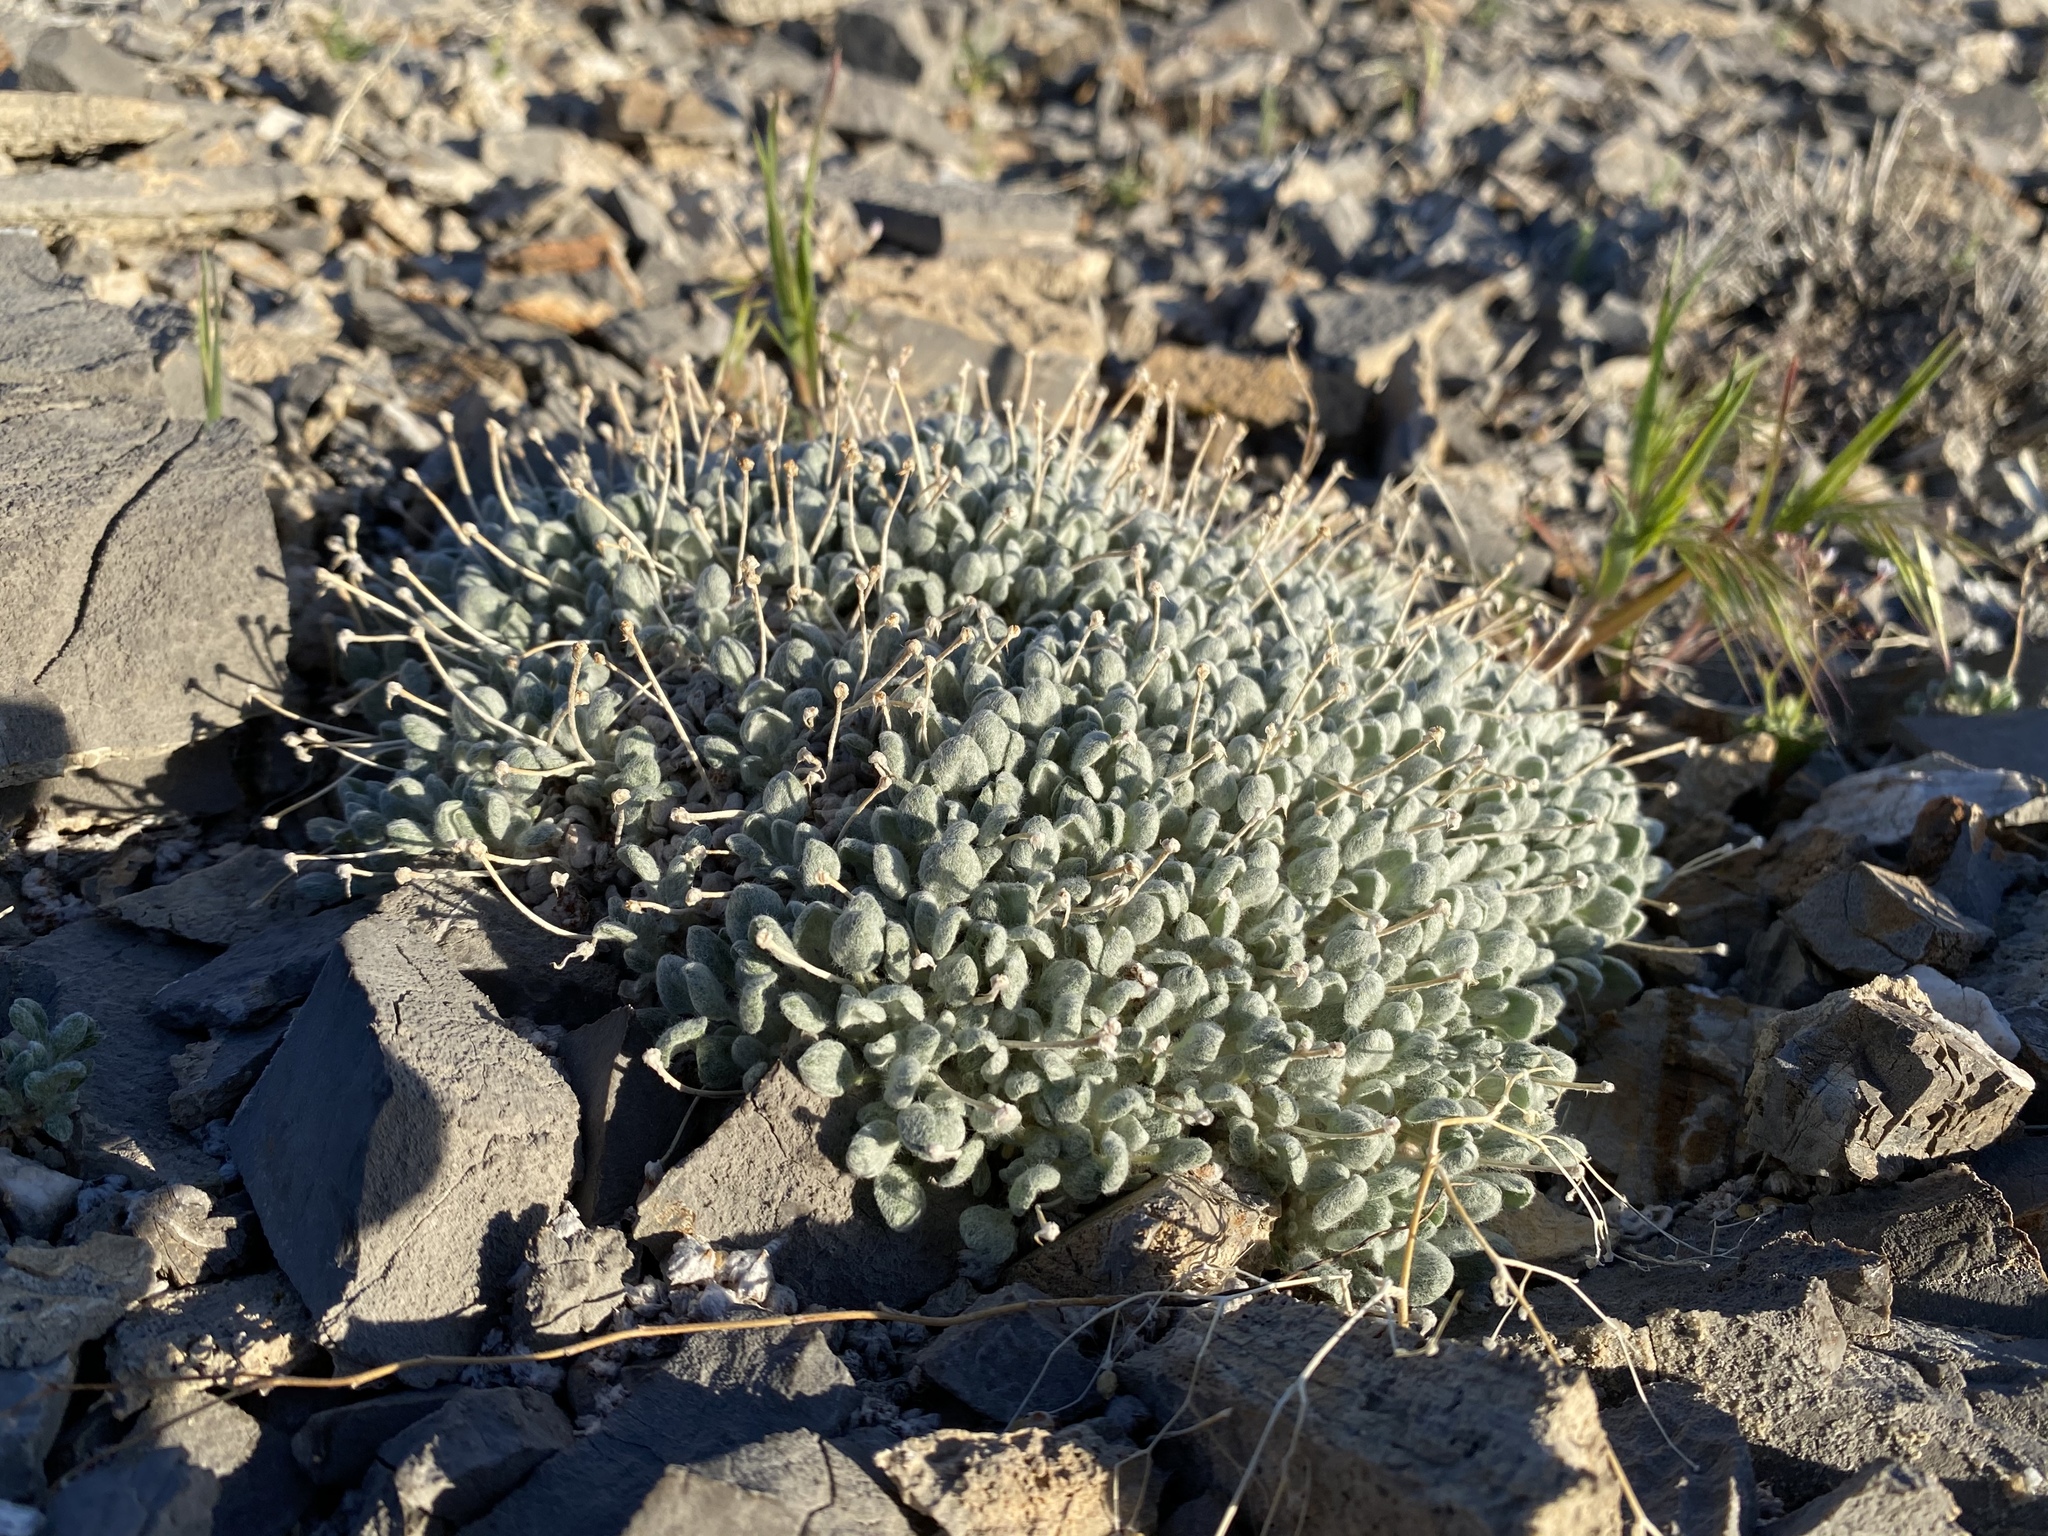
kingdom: Plantae
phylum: Tracheophyta
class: Magnoliopsida
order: Caryophyllales
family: Polygonaceae
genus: Eriogonum
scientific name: Eriogonum shockleyi
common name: Shockley's wild buckwheat
